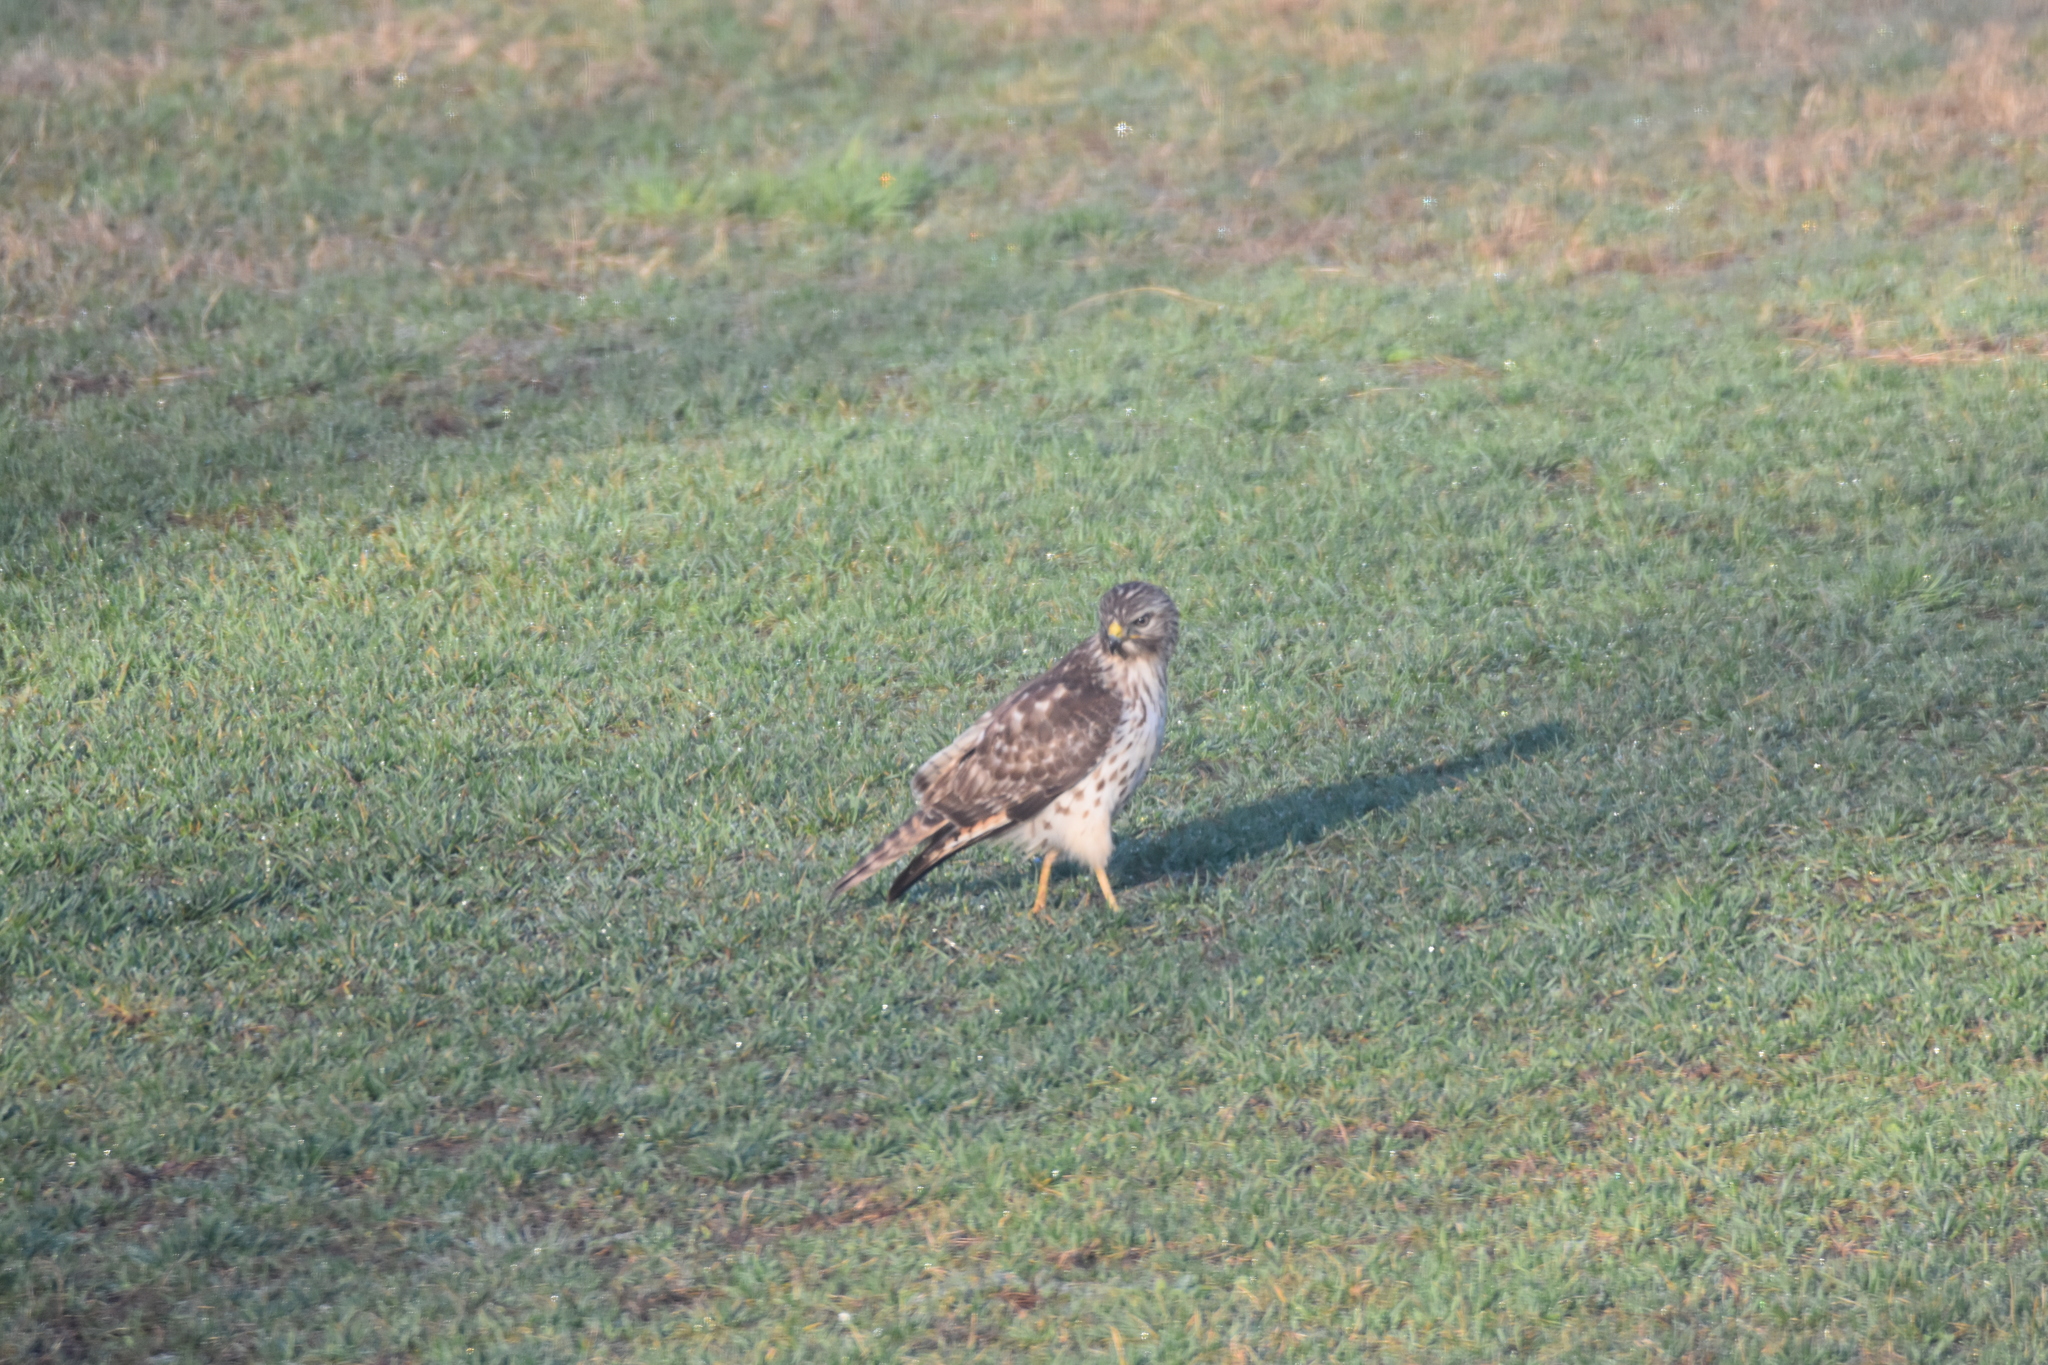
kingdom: Animalia
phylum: Chordata
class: Aves
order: Accipitriformes
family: Accipitridae
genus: Buteo
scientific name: Buteo lineatus
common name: Red-shouldered hawk
